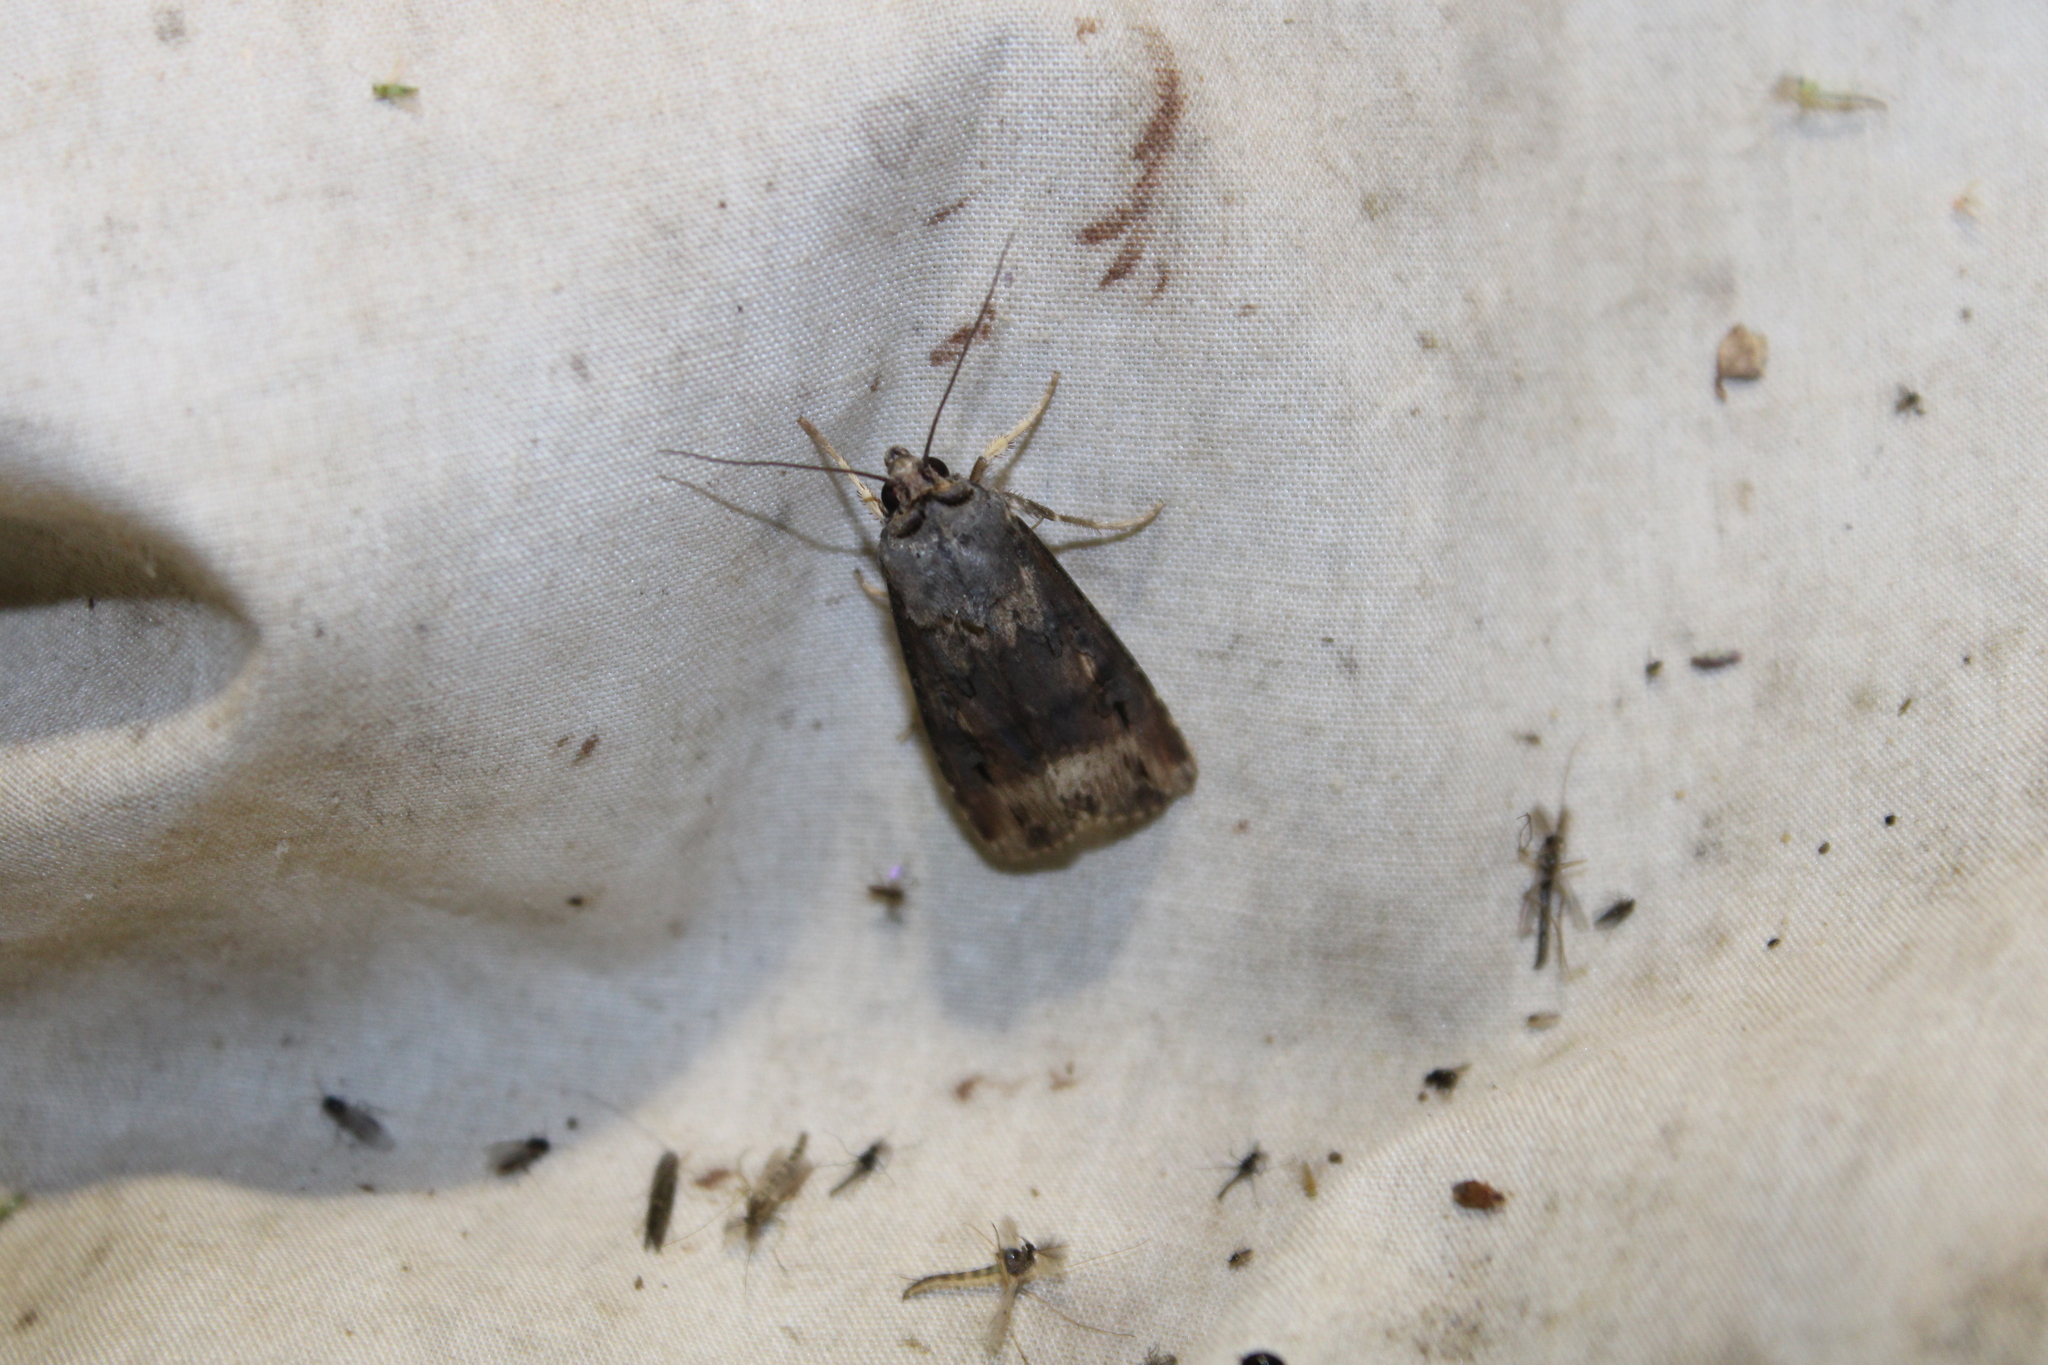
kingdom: Animalia
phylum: Arthropoda
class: Insecta
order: Lepidoptera
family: Noctuidae
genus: Agrotis
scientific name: Agrotis ipsilon
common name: Dark sword-grass
